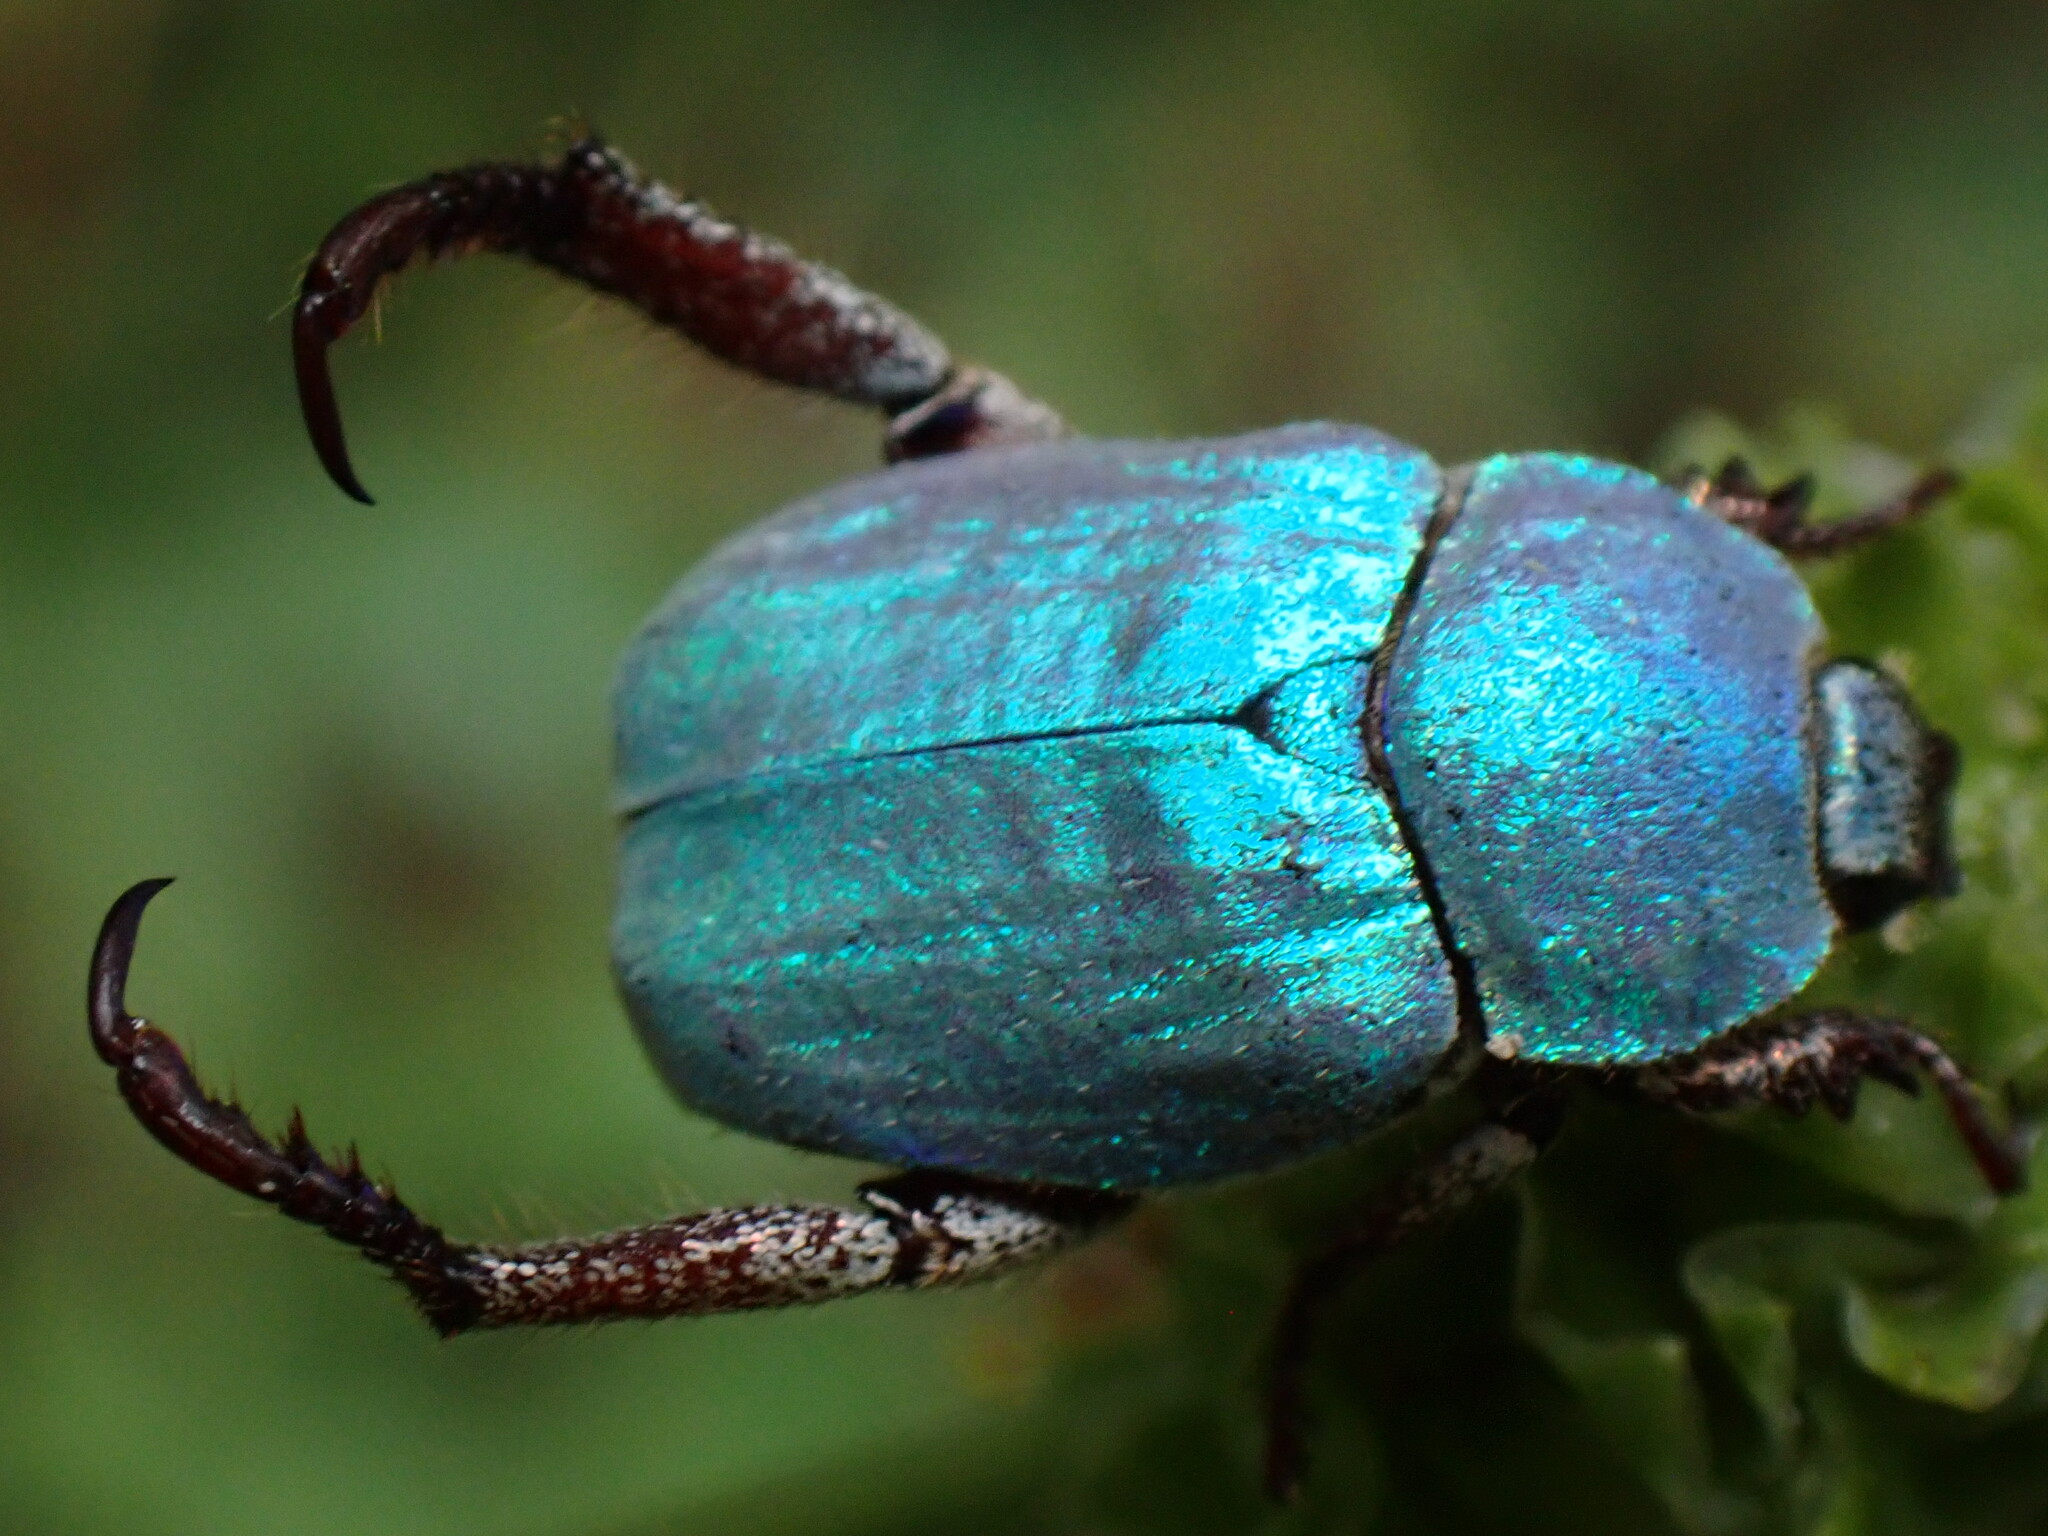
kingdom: Animalia
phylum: Arthropoda
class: Insecta
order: Coleoptera
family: Scarabaeidae
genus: Hoplia
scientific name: Hoplia coerulea
